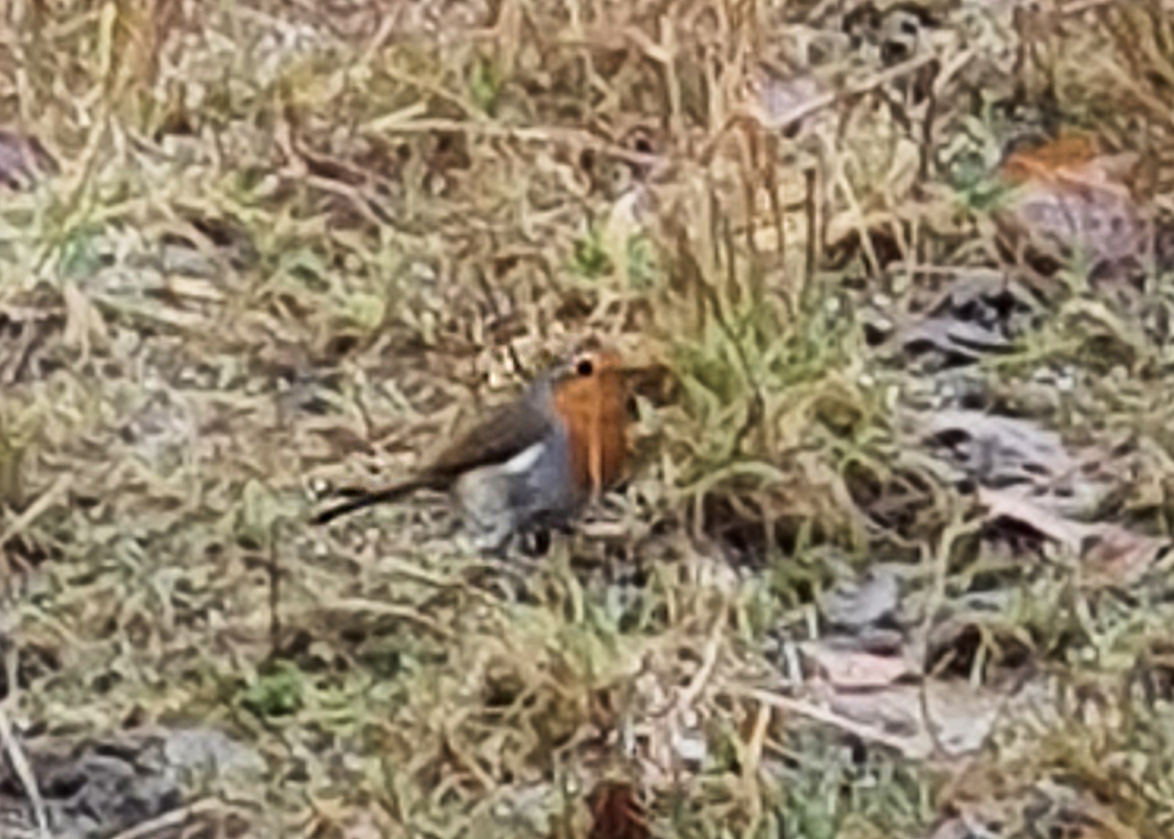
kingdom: Animalia
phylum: Chordata
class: Aves
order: Passeriformes
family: Muscicapidae
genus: Erithacus
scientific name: Erithacus rubecula
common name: European robin
